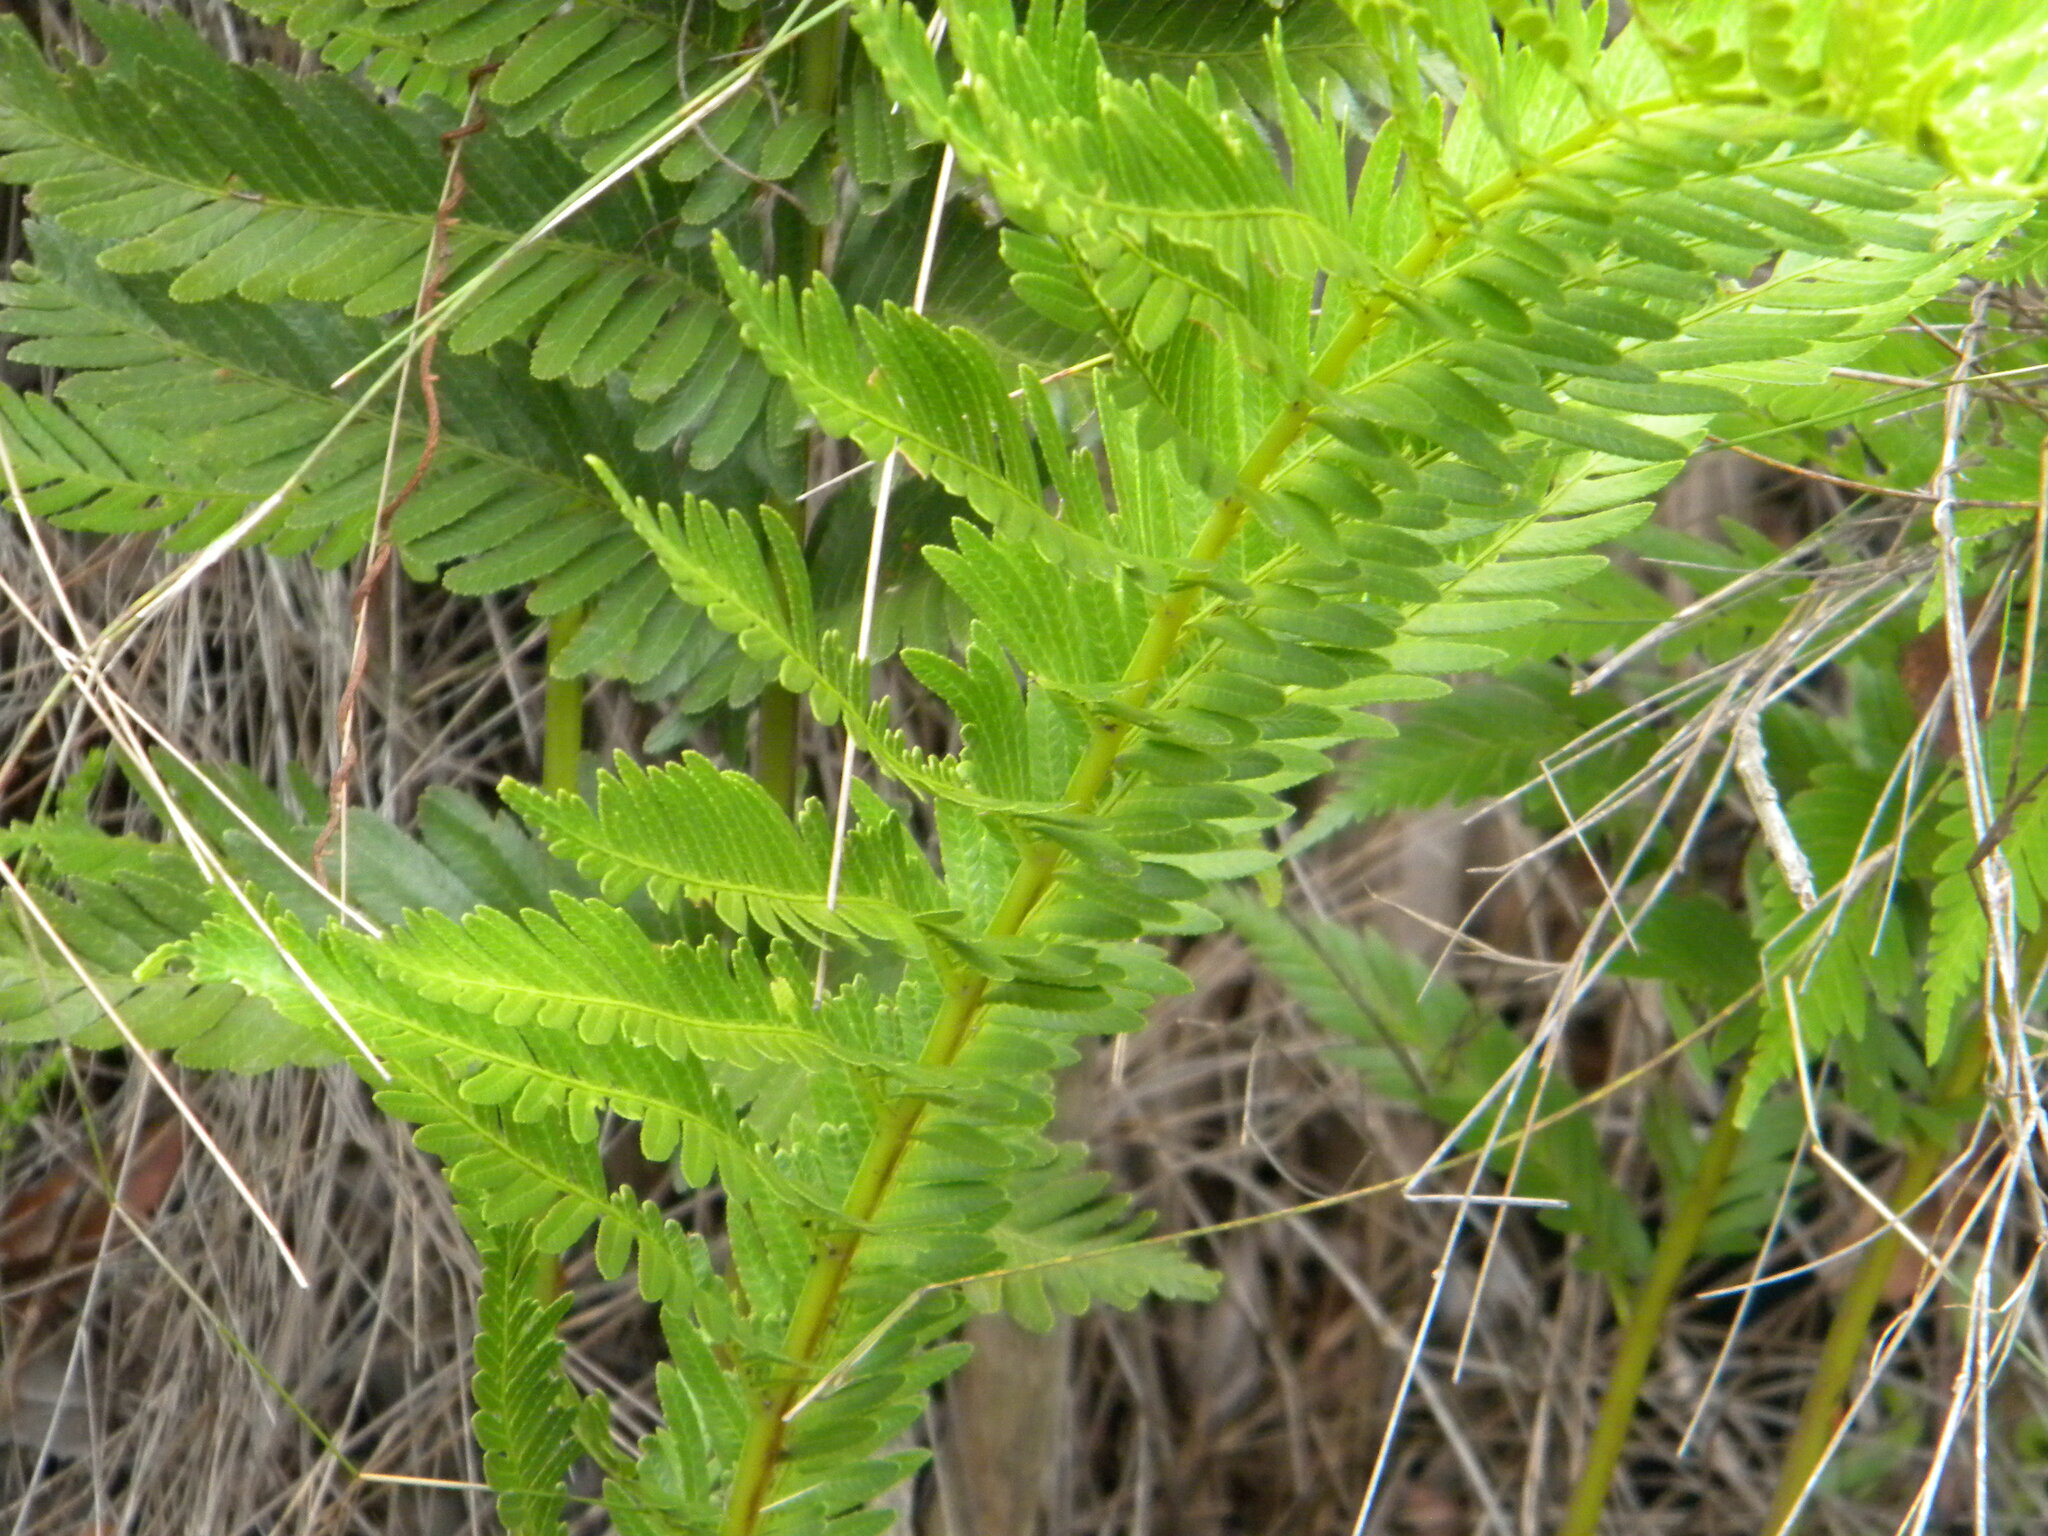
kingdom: Plantae
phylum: Tracheophyta
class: Polypodiopsida
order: Osmundales
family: Osmundaceae
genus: Todea
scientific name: Todea barbara
